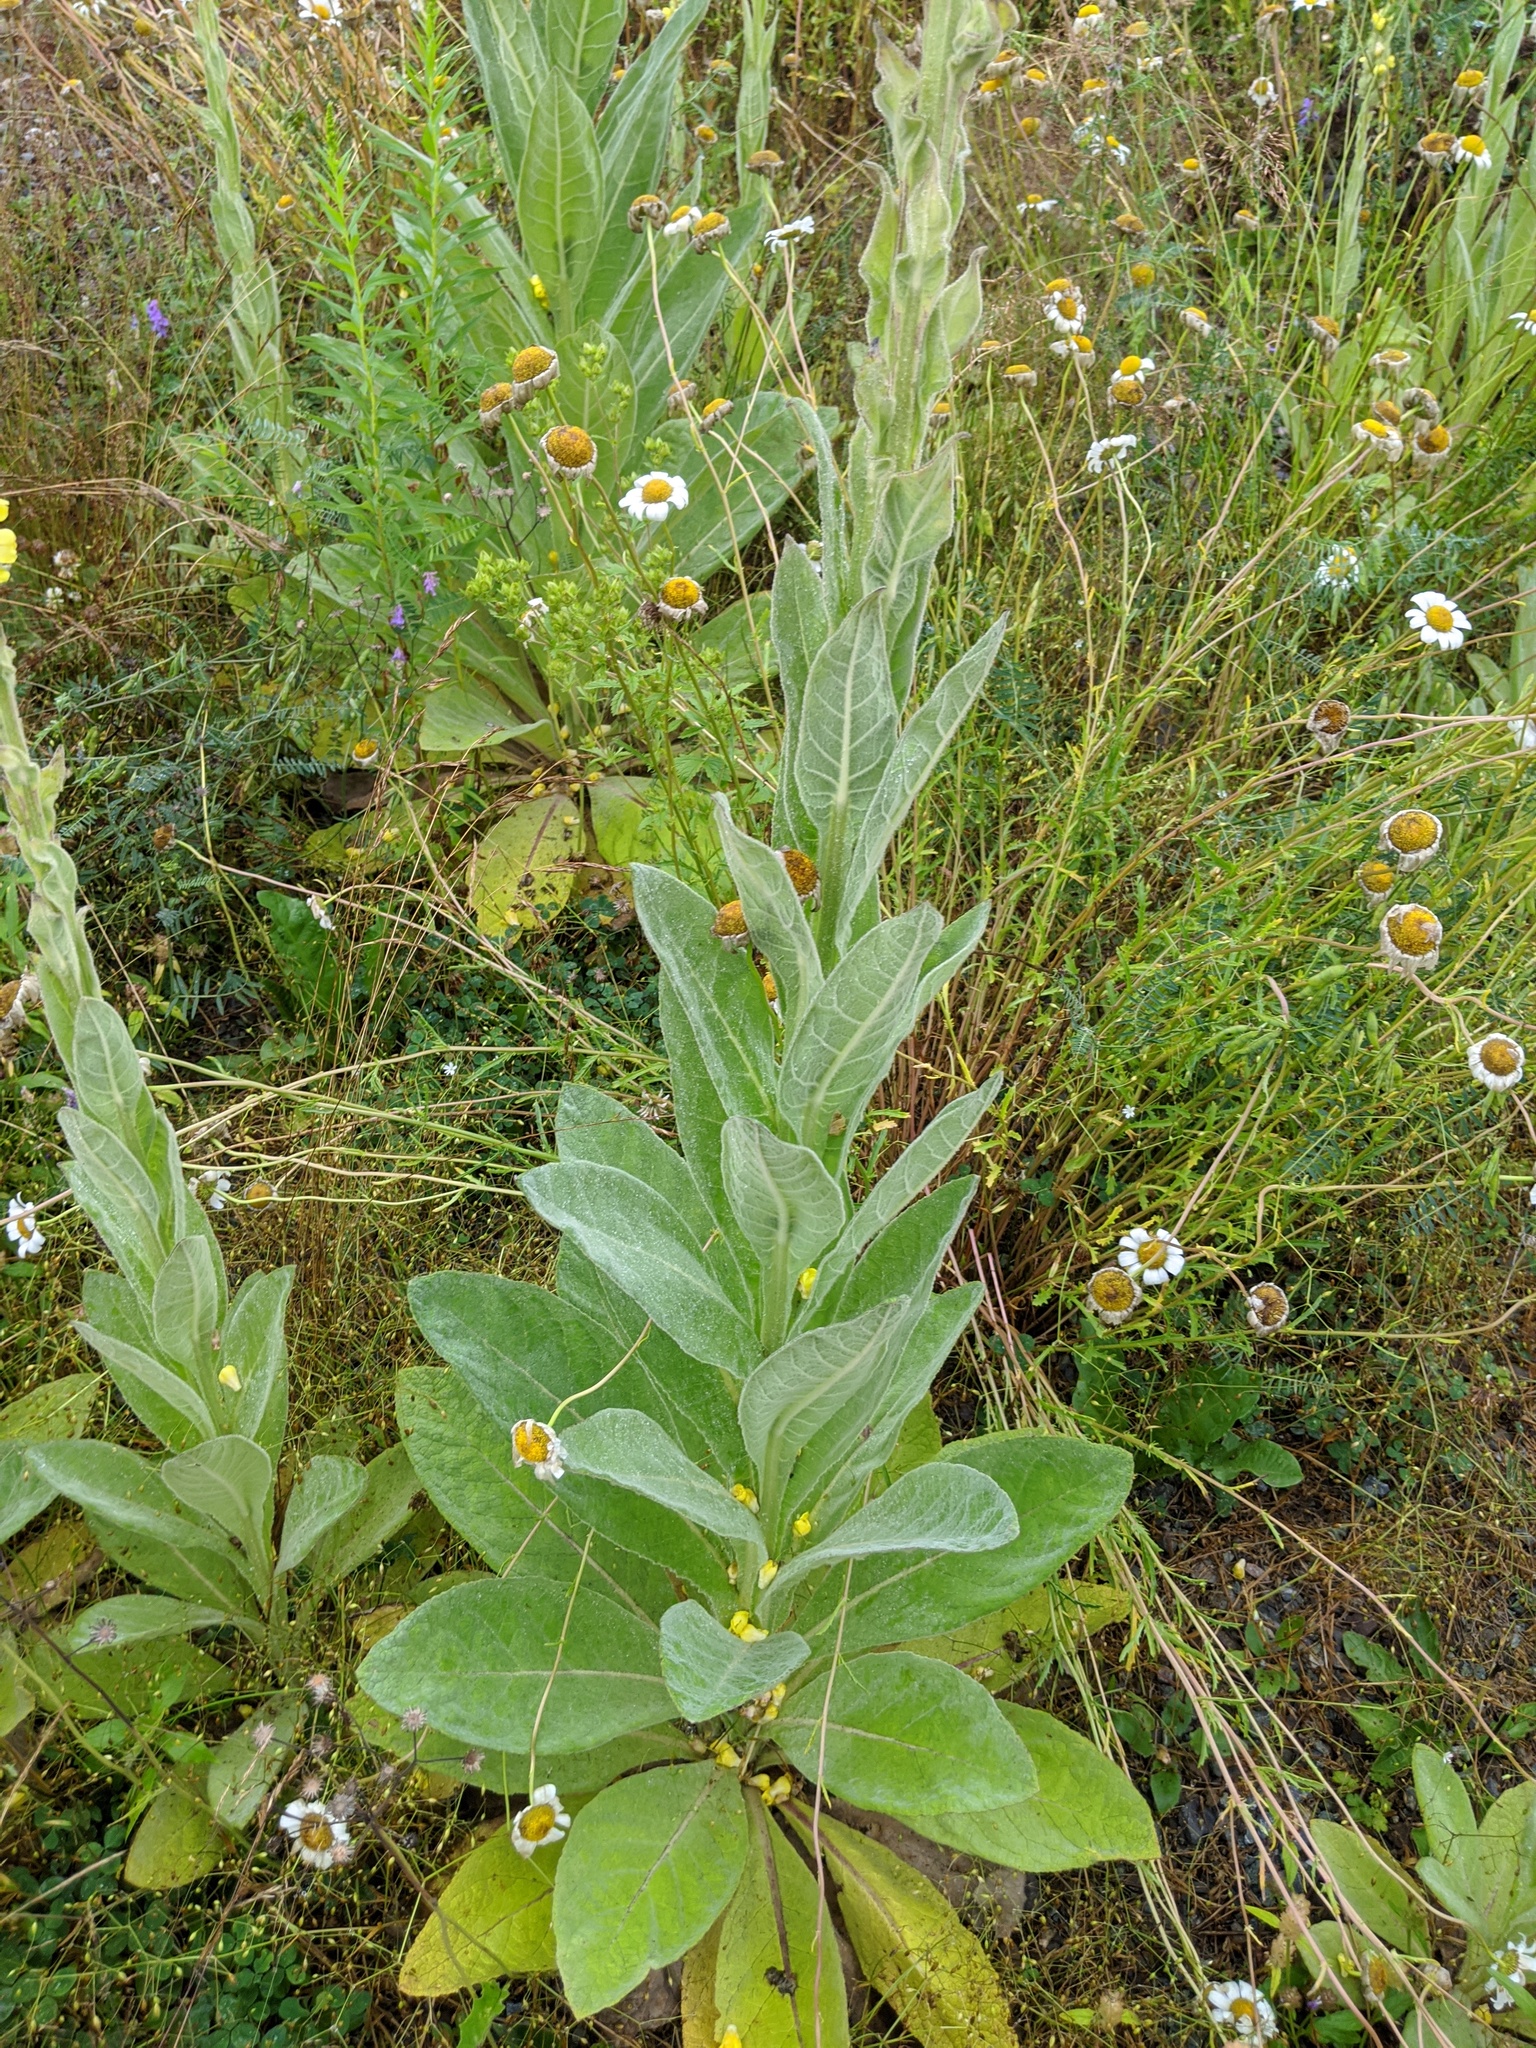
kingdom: Plantae
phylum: Tracheophyta
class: Magnoliopsida
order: Lamiales
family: Scrophulariaceae
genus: Verbascum
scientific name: Verbascum thapsus
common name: Common mullein
